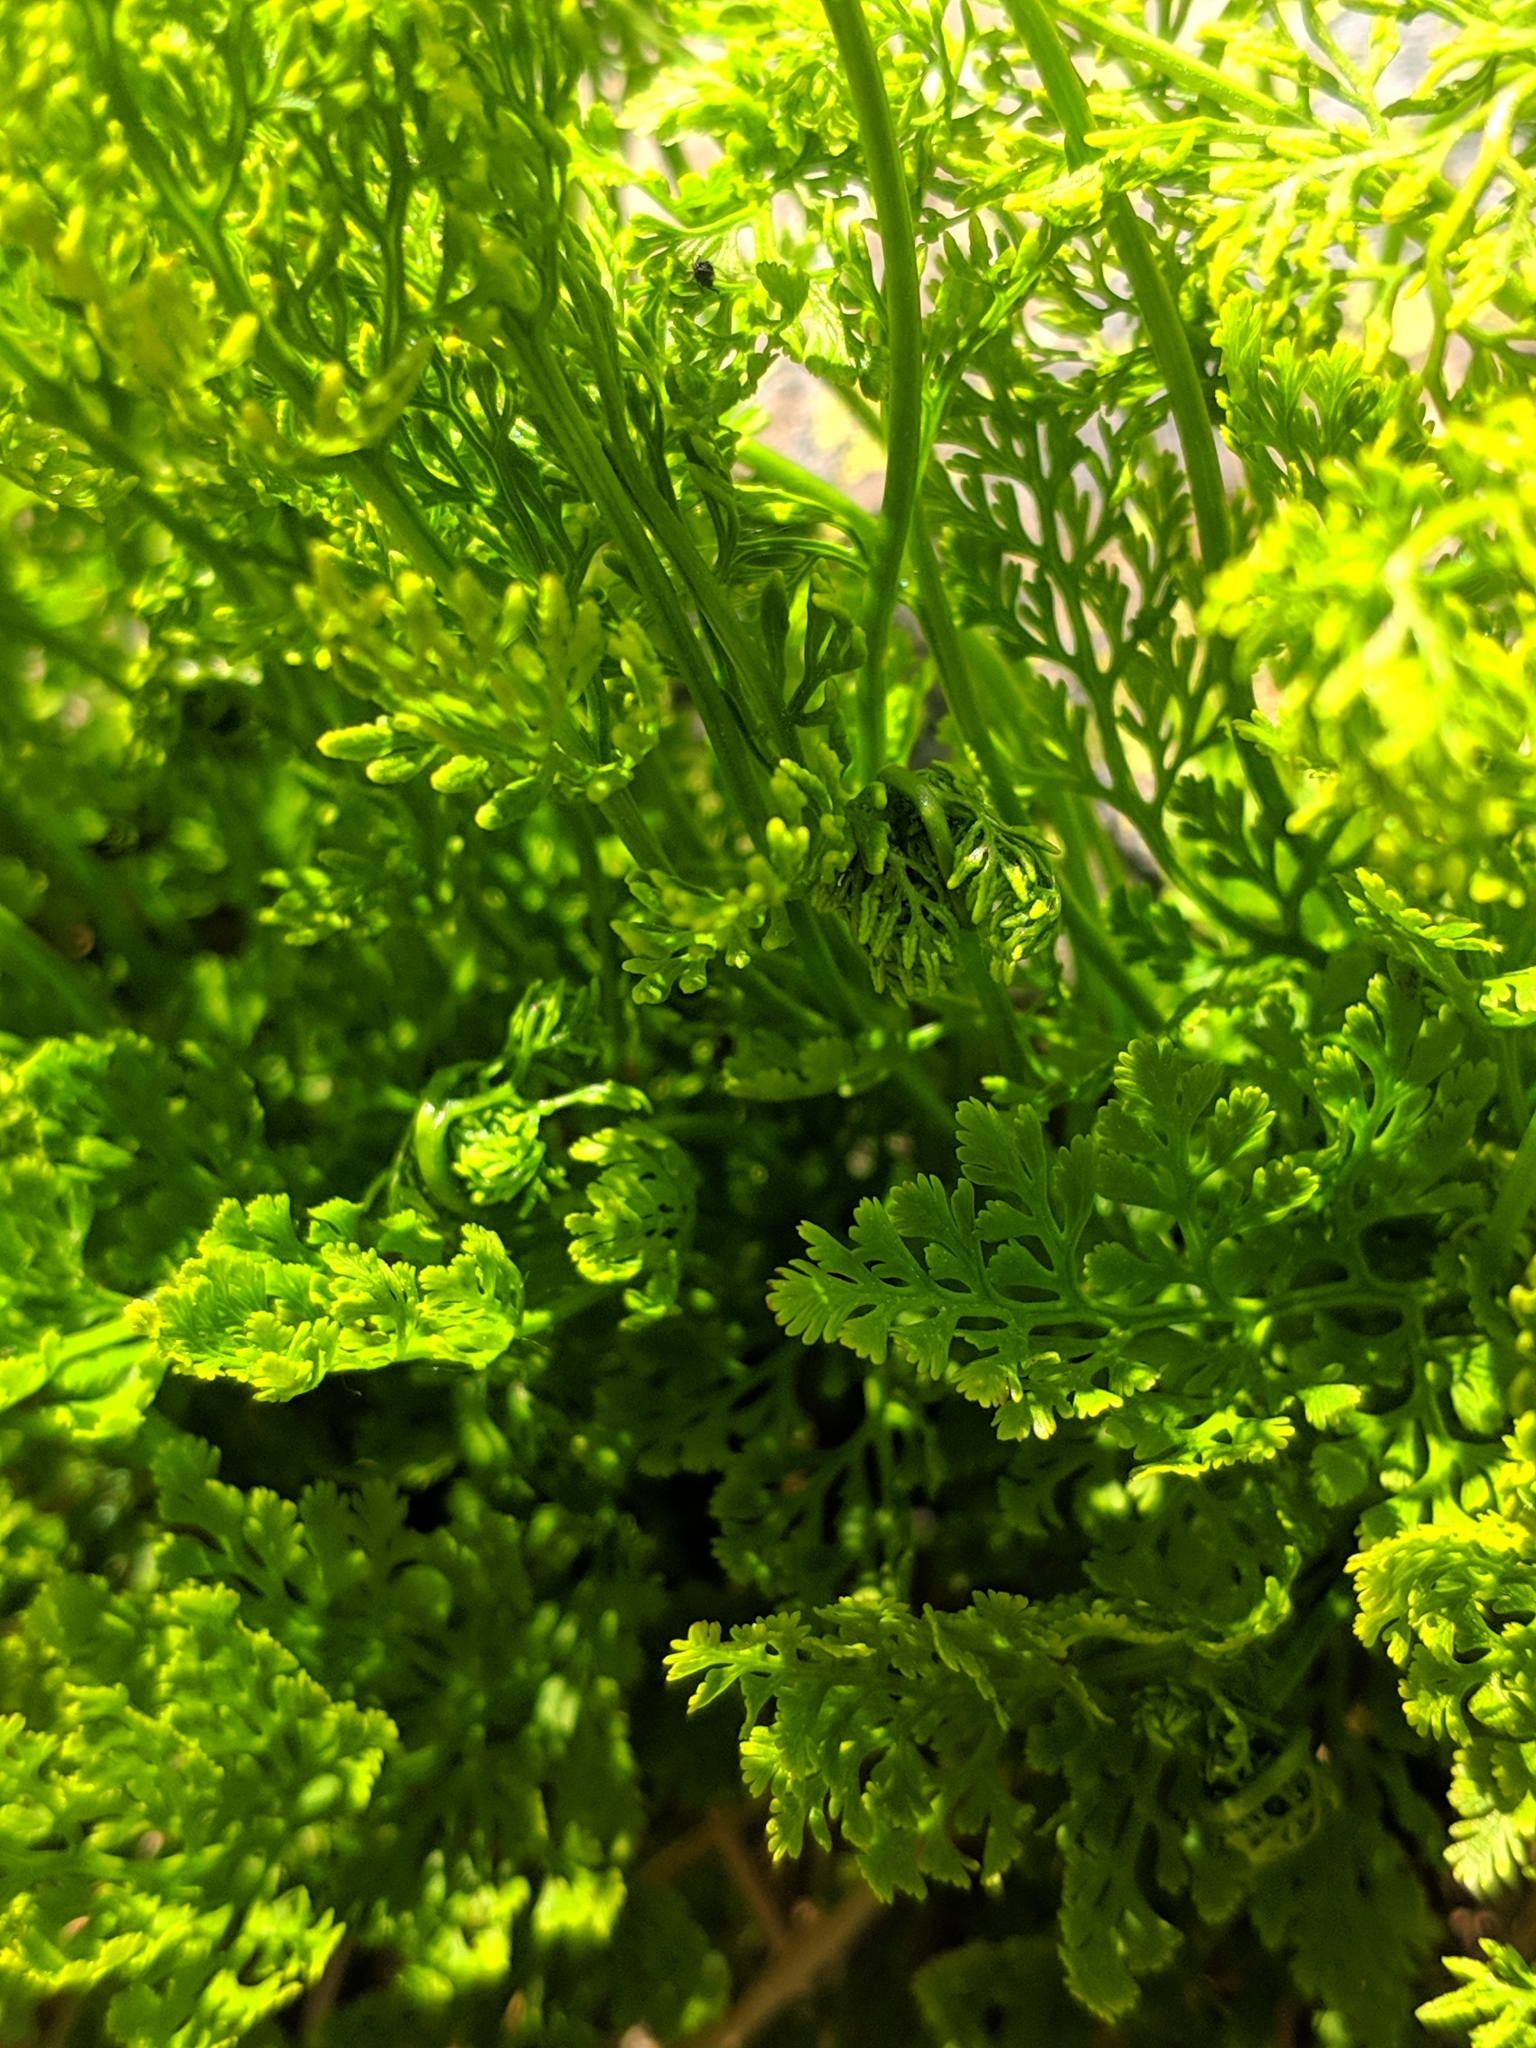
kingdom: Plantae
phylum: Tracheophyta
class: Polypodiopsida
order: Polypodiales
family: Pteridaceae
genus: Cryptogramma
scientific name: Cryptogramma crispa
